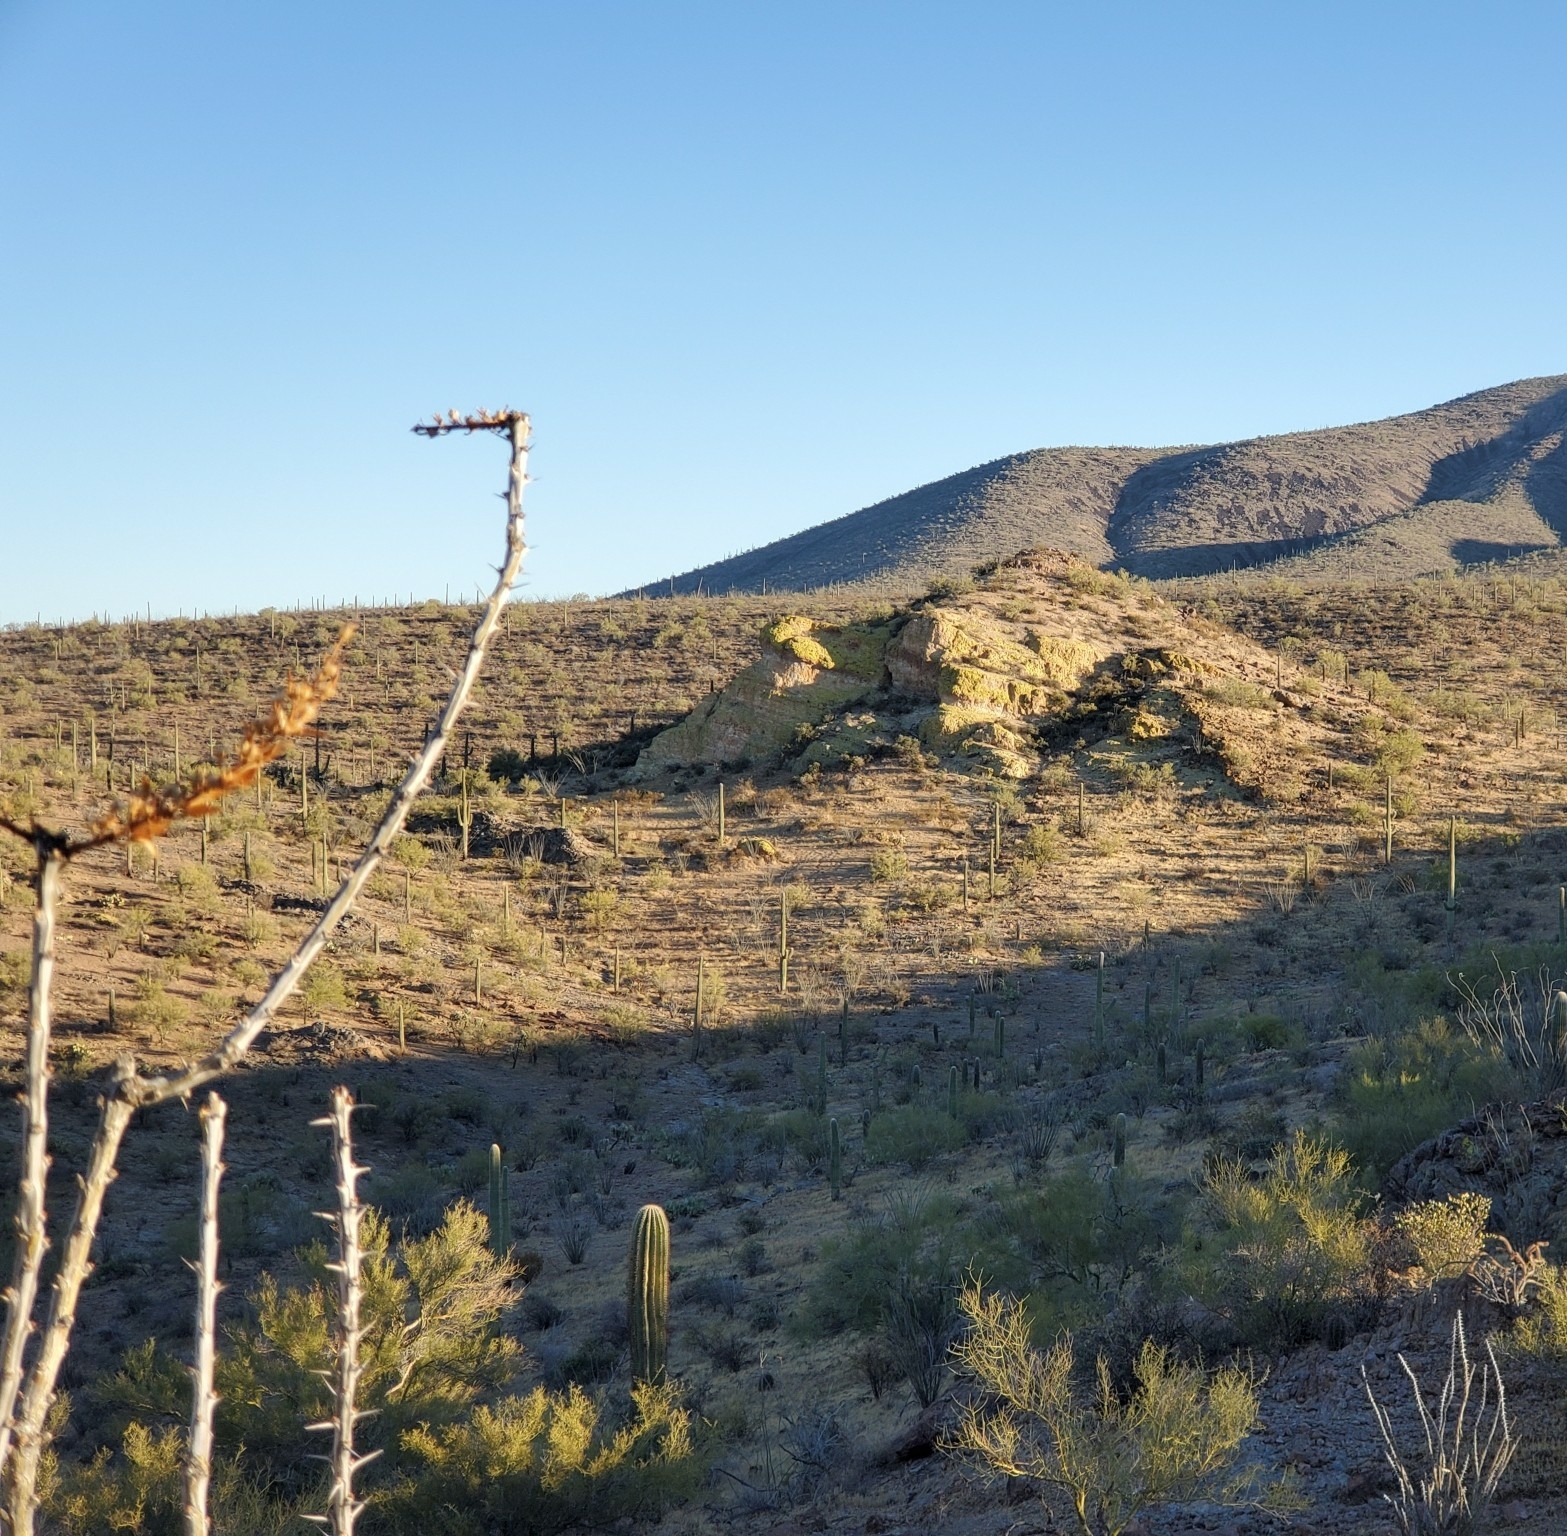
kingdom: Plantae
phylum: Tracheophyta
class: Magnoliopsida
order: Ericales
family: Fouquieriaceae
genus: Fouquieria
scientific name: Fouquieria splendens
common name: Vine-cactus
